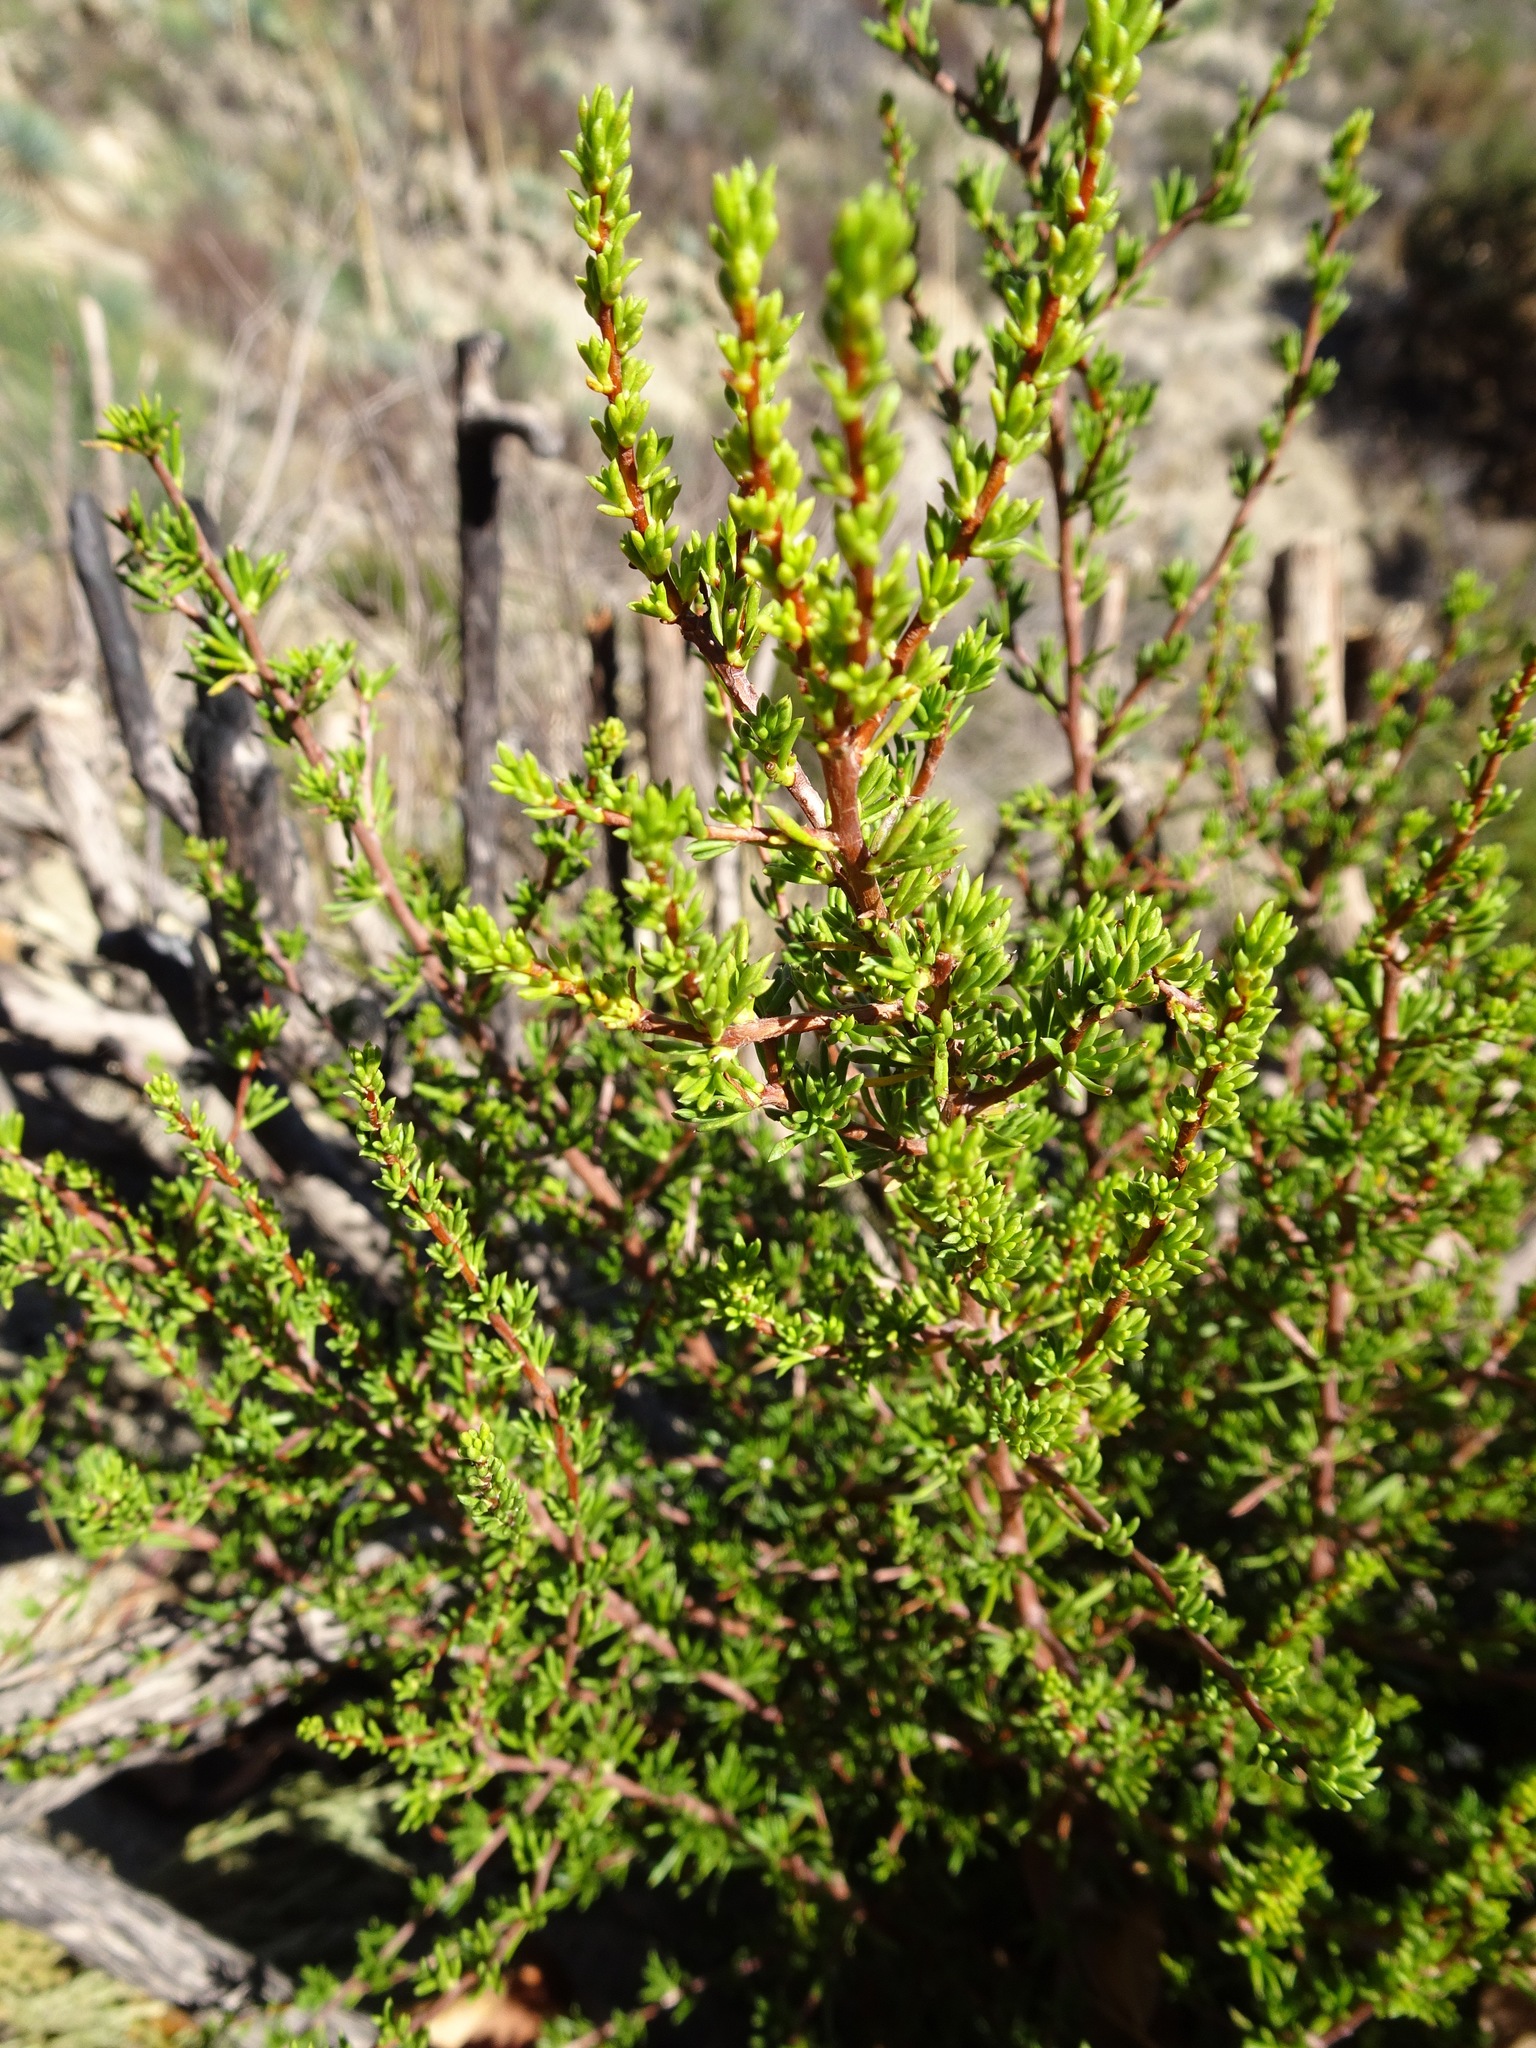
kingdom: Plantae
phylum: Tracheophyta
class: Magnoliopsida
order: Rosales
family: Rosaceae
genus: Adenostoma
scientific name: Adenostoma fasciculatum
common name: Chamise
